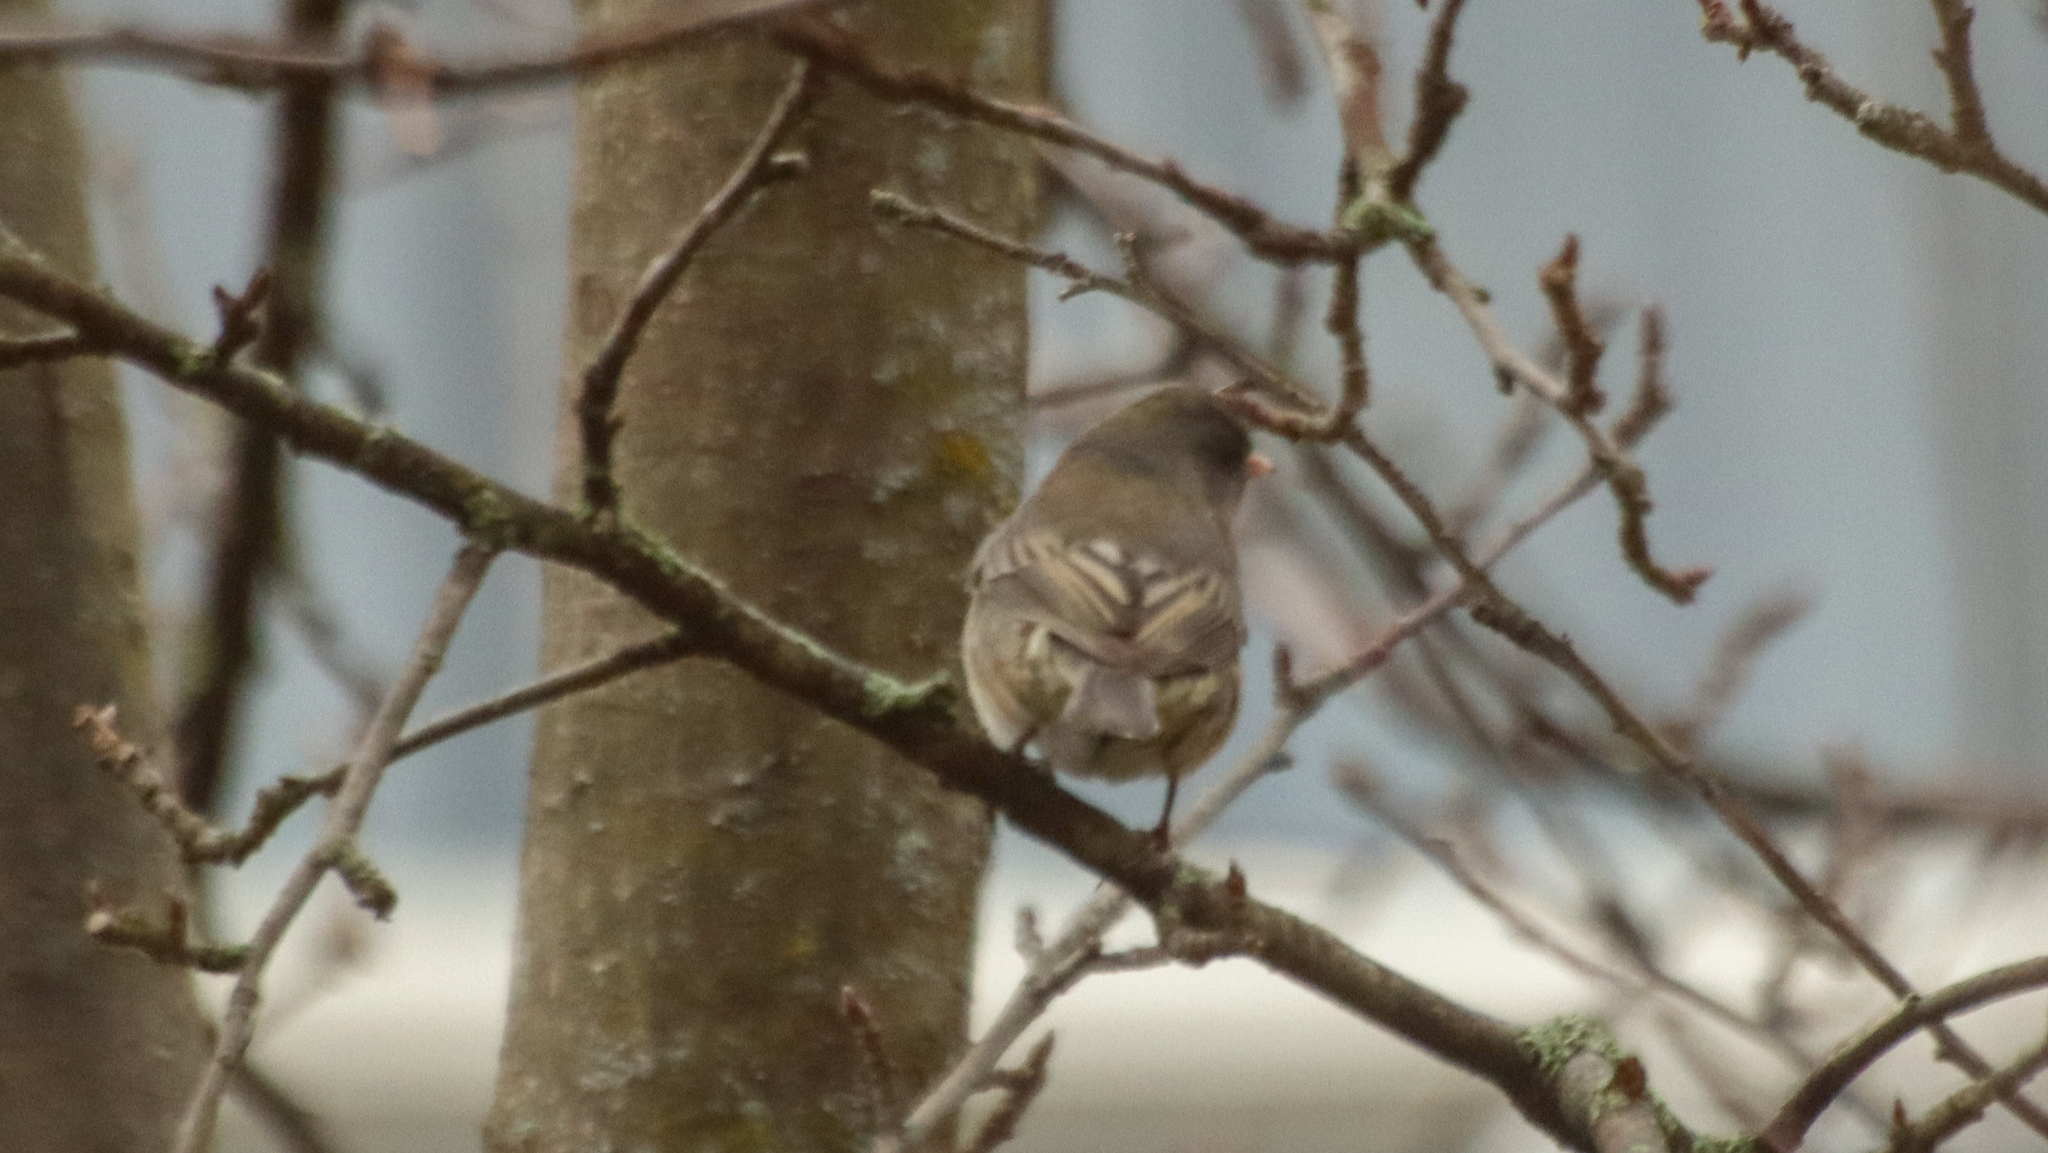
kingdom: Animalia
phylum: Chordata
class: Aves
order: Passeriformes
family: Passerellidae
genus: Junco
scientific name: Junco hyemalis
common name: Dark-eyed junco
